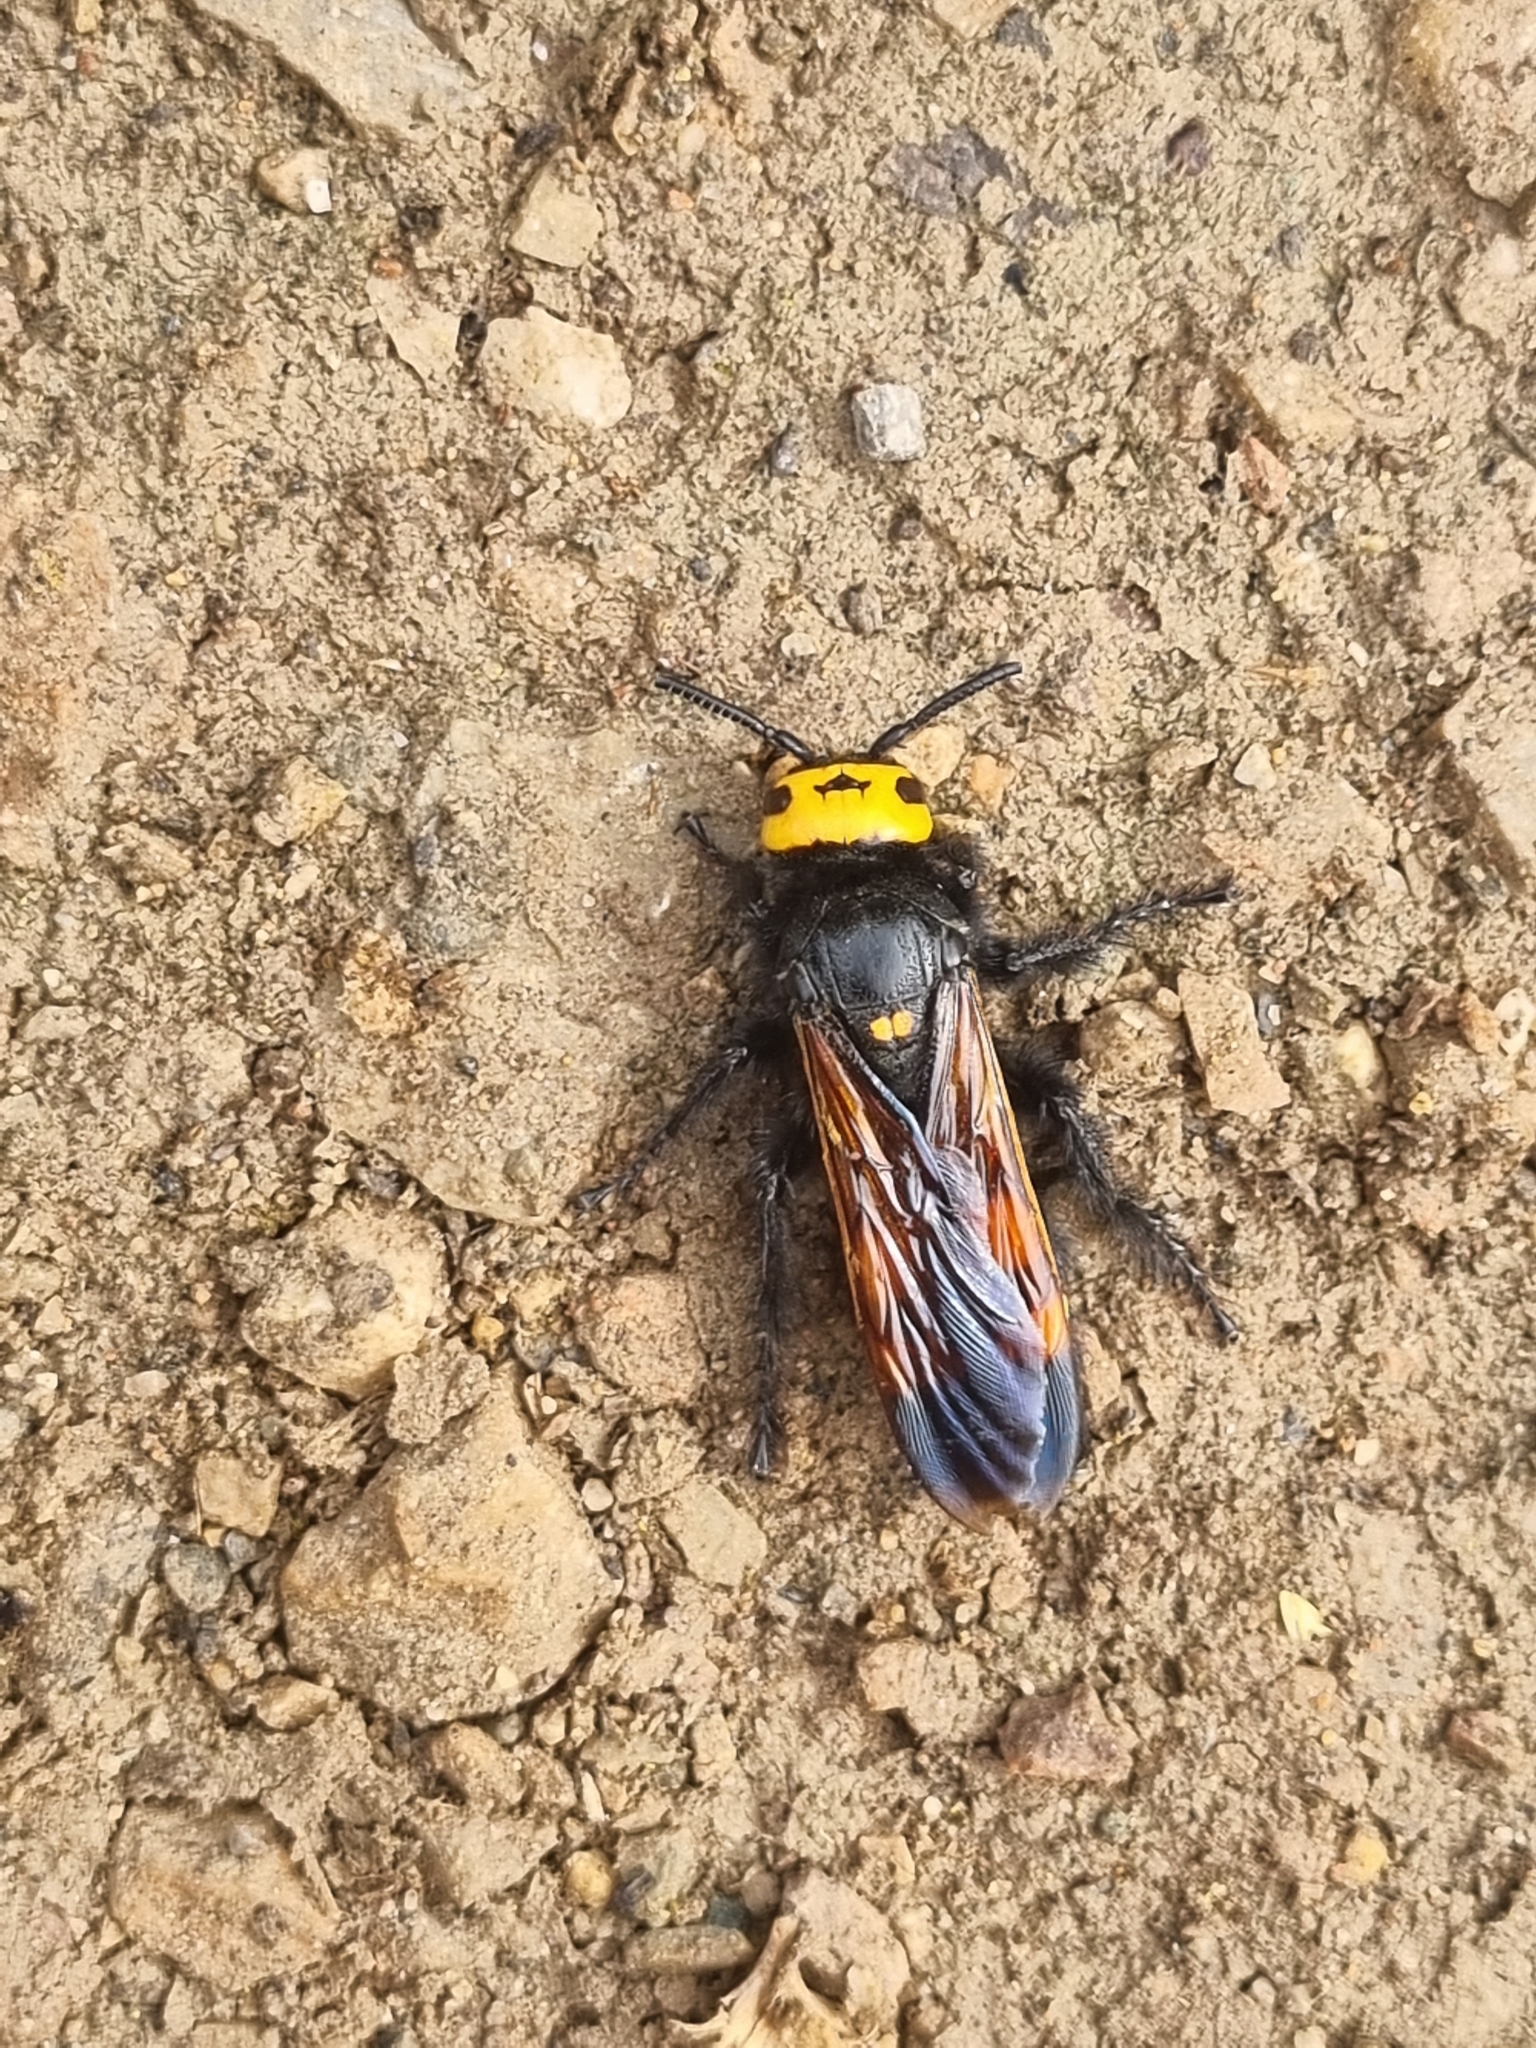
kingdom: Animalia
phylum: Arthropoda
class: Insecta
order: Hymenoptera
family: Scoliidae
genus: Megascolia
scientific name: Megascolia maculata
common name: Mammoth wasp
